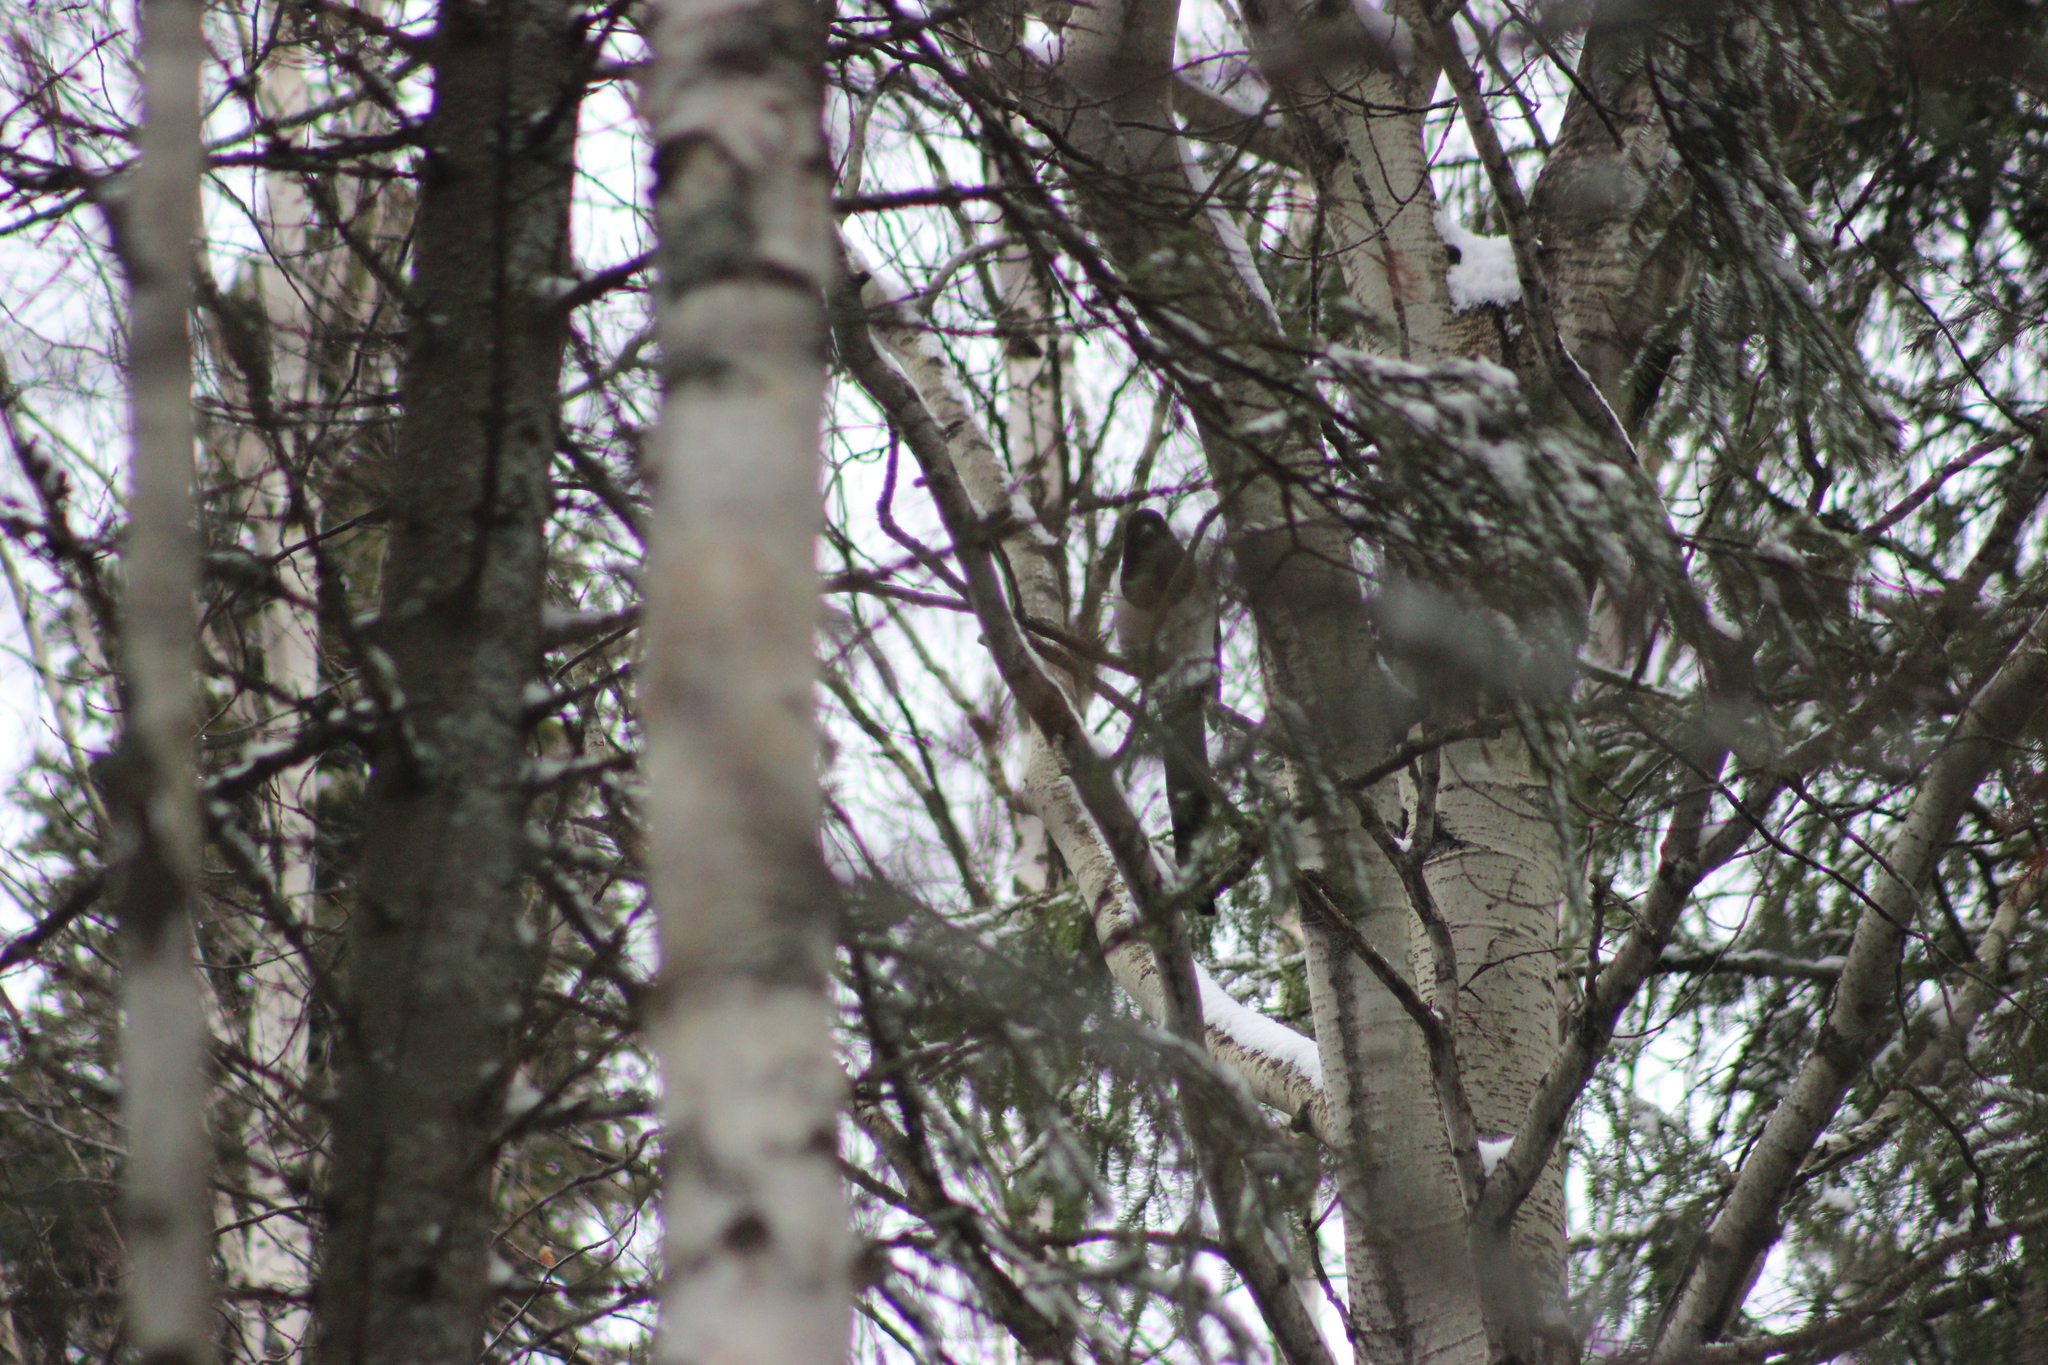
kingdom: Animalia
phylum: Chordata
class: Aves
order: Passeriformes
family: Corvidae
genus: Pica
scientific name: Pica pica
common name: Eurasian magpie
